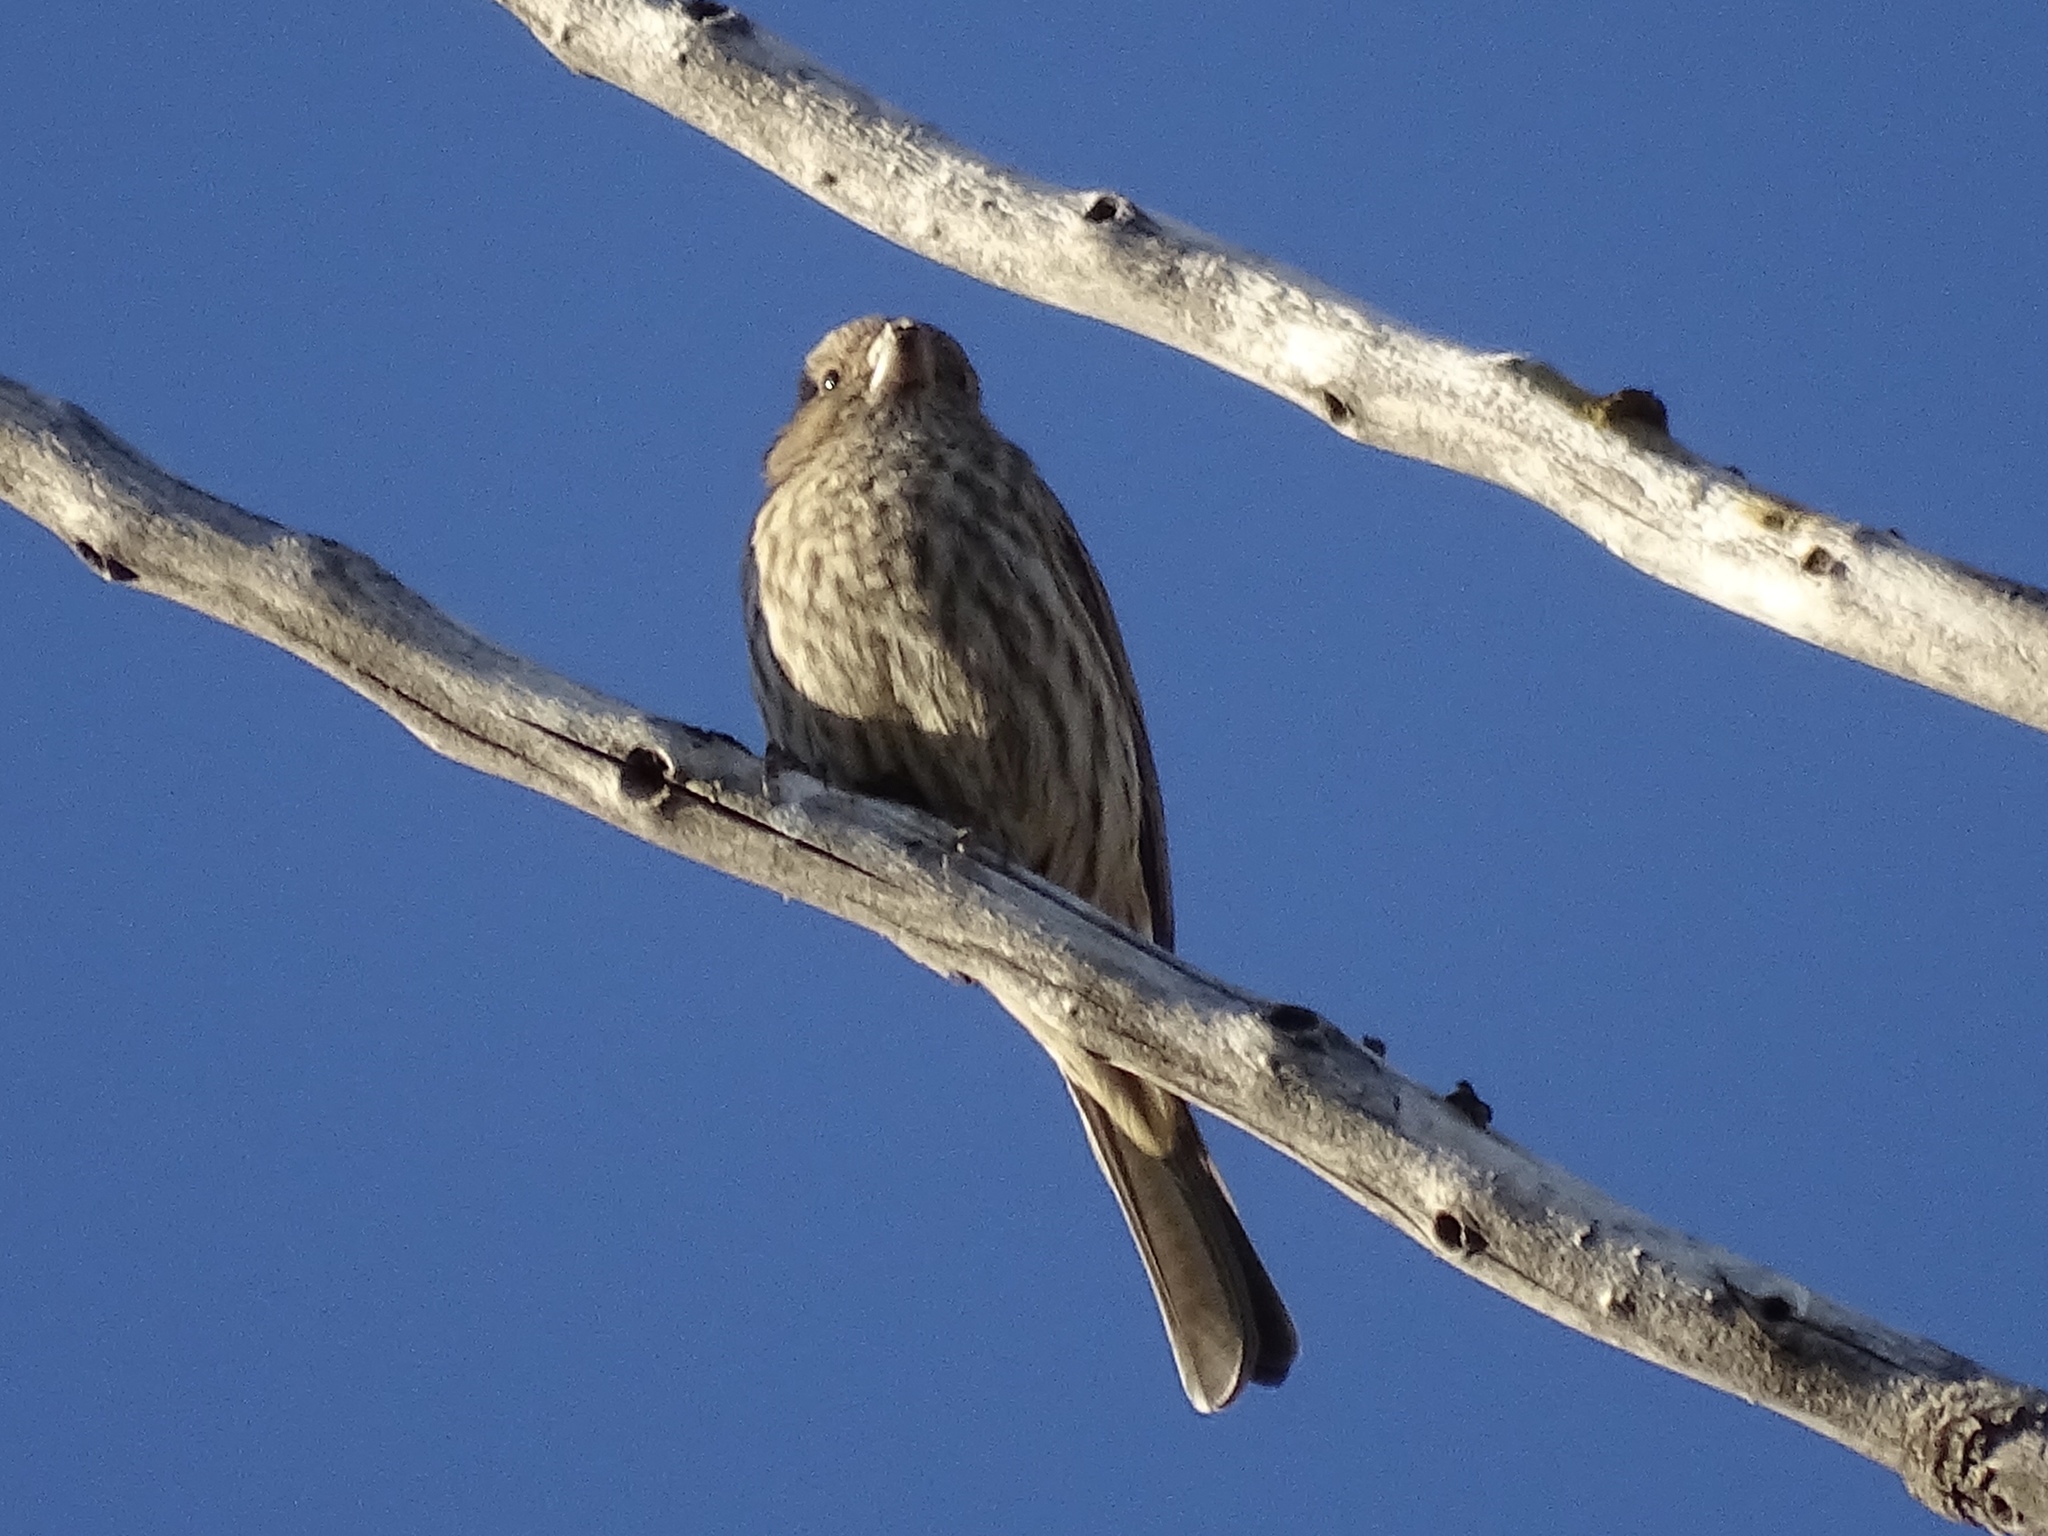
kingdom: Animalia
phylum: Chordata
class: Aves
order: Passeriformes
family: Fringillidae
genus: Haemorhous
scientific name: Haemorhous mexicanus
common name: House finch
